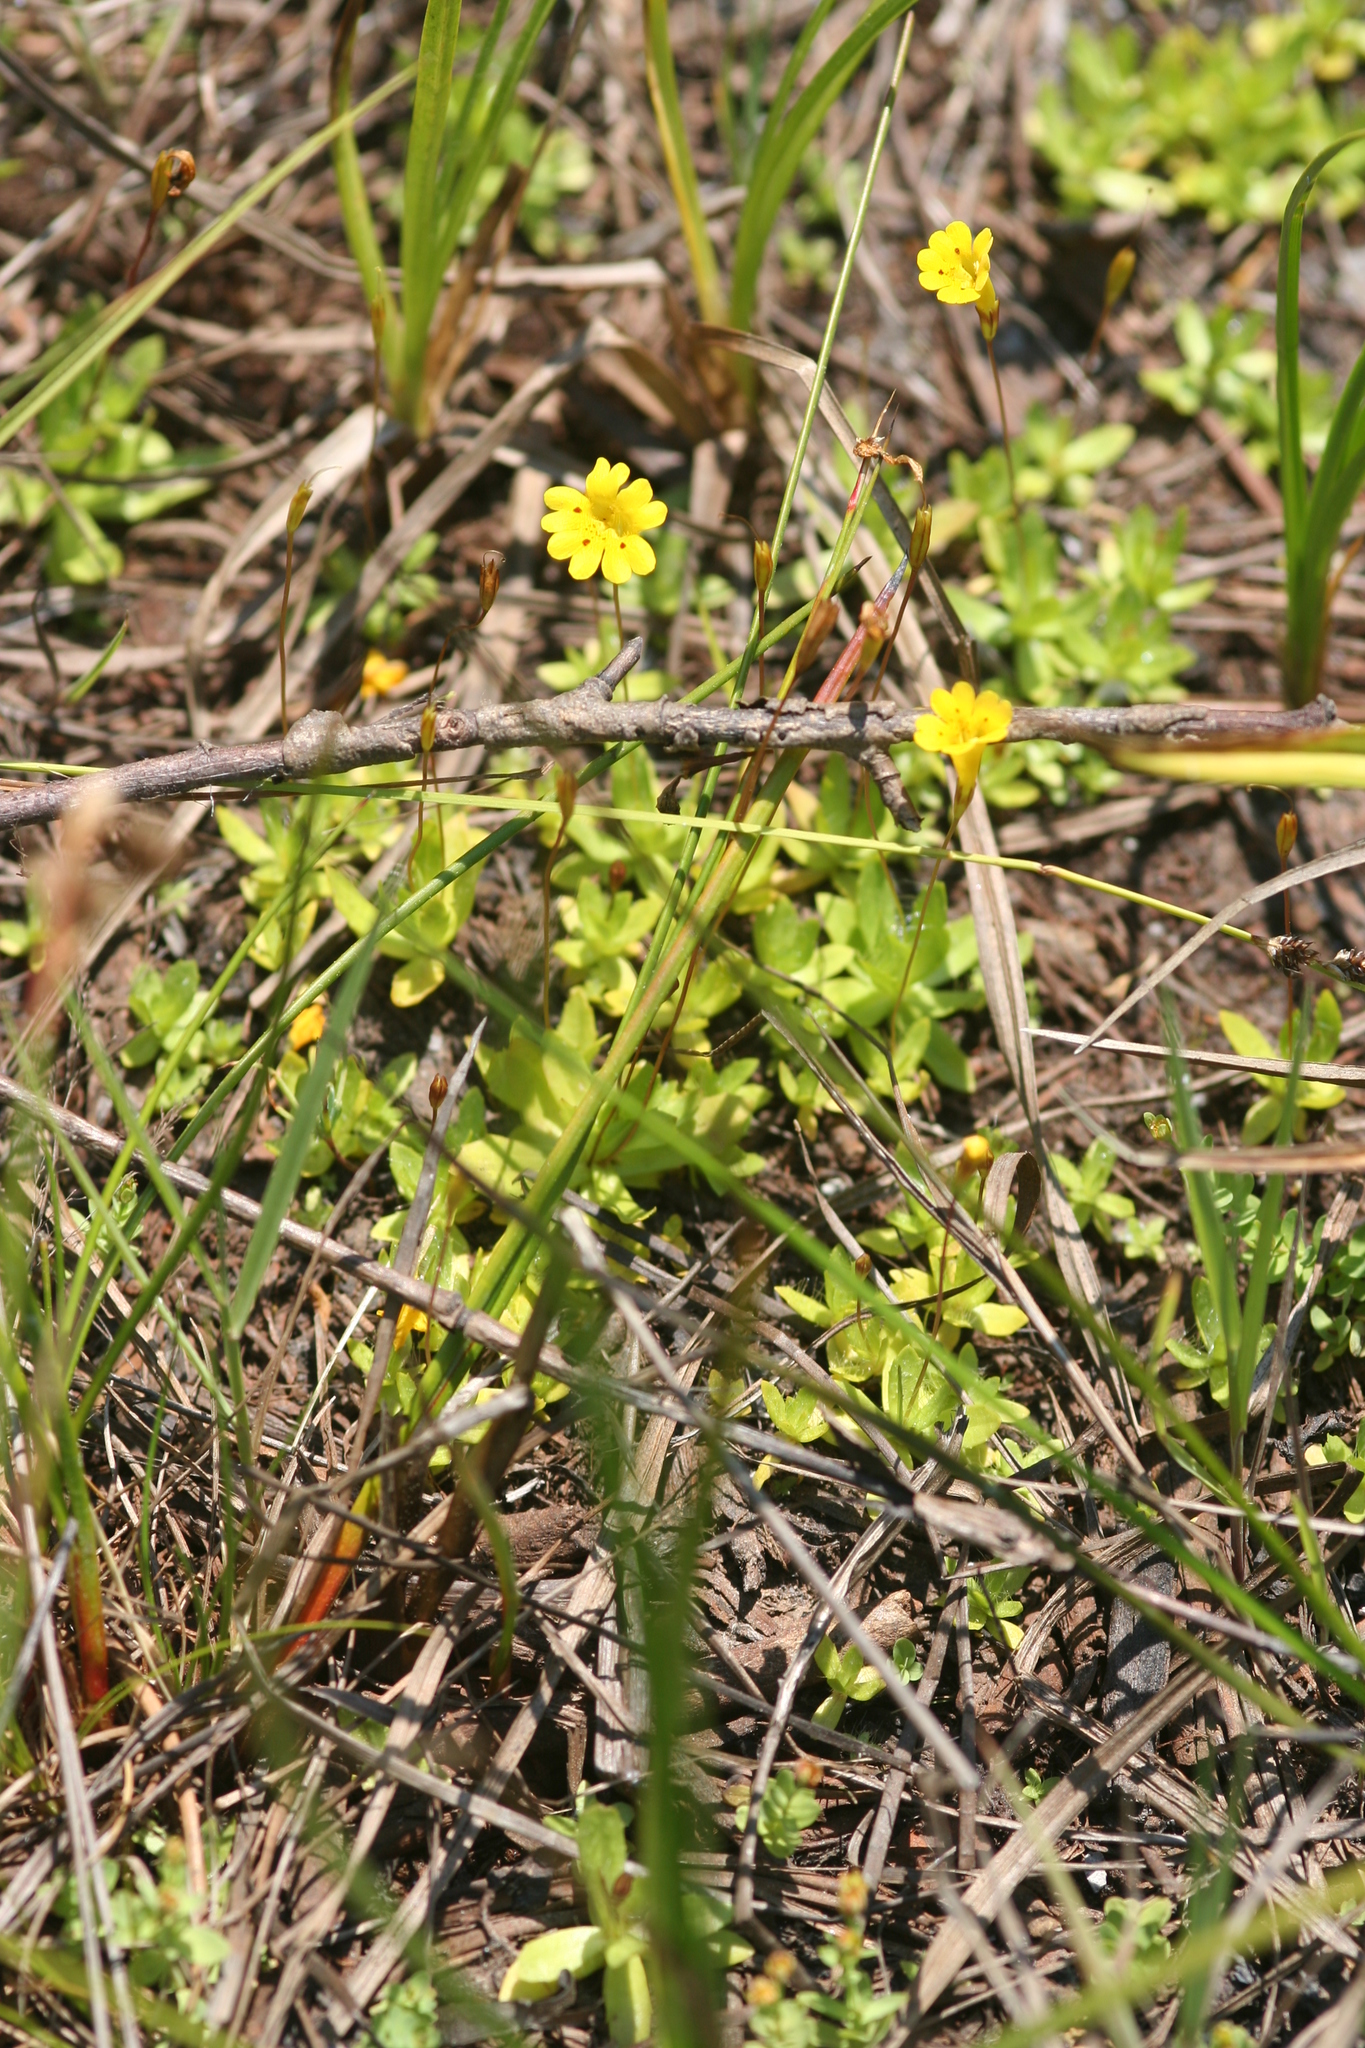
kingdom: Plantae
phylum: Tracheophyta
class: Magnoliopsida
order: Lamiales
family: Phrymaceae
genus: Erythranthe
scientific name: Erythranthe primuloides
